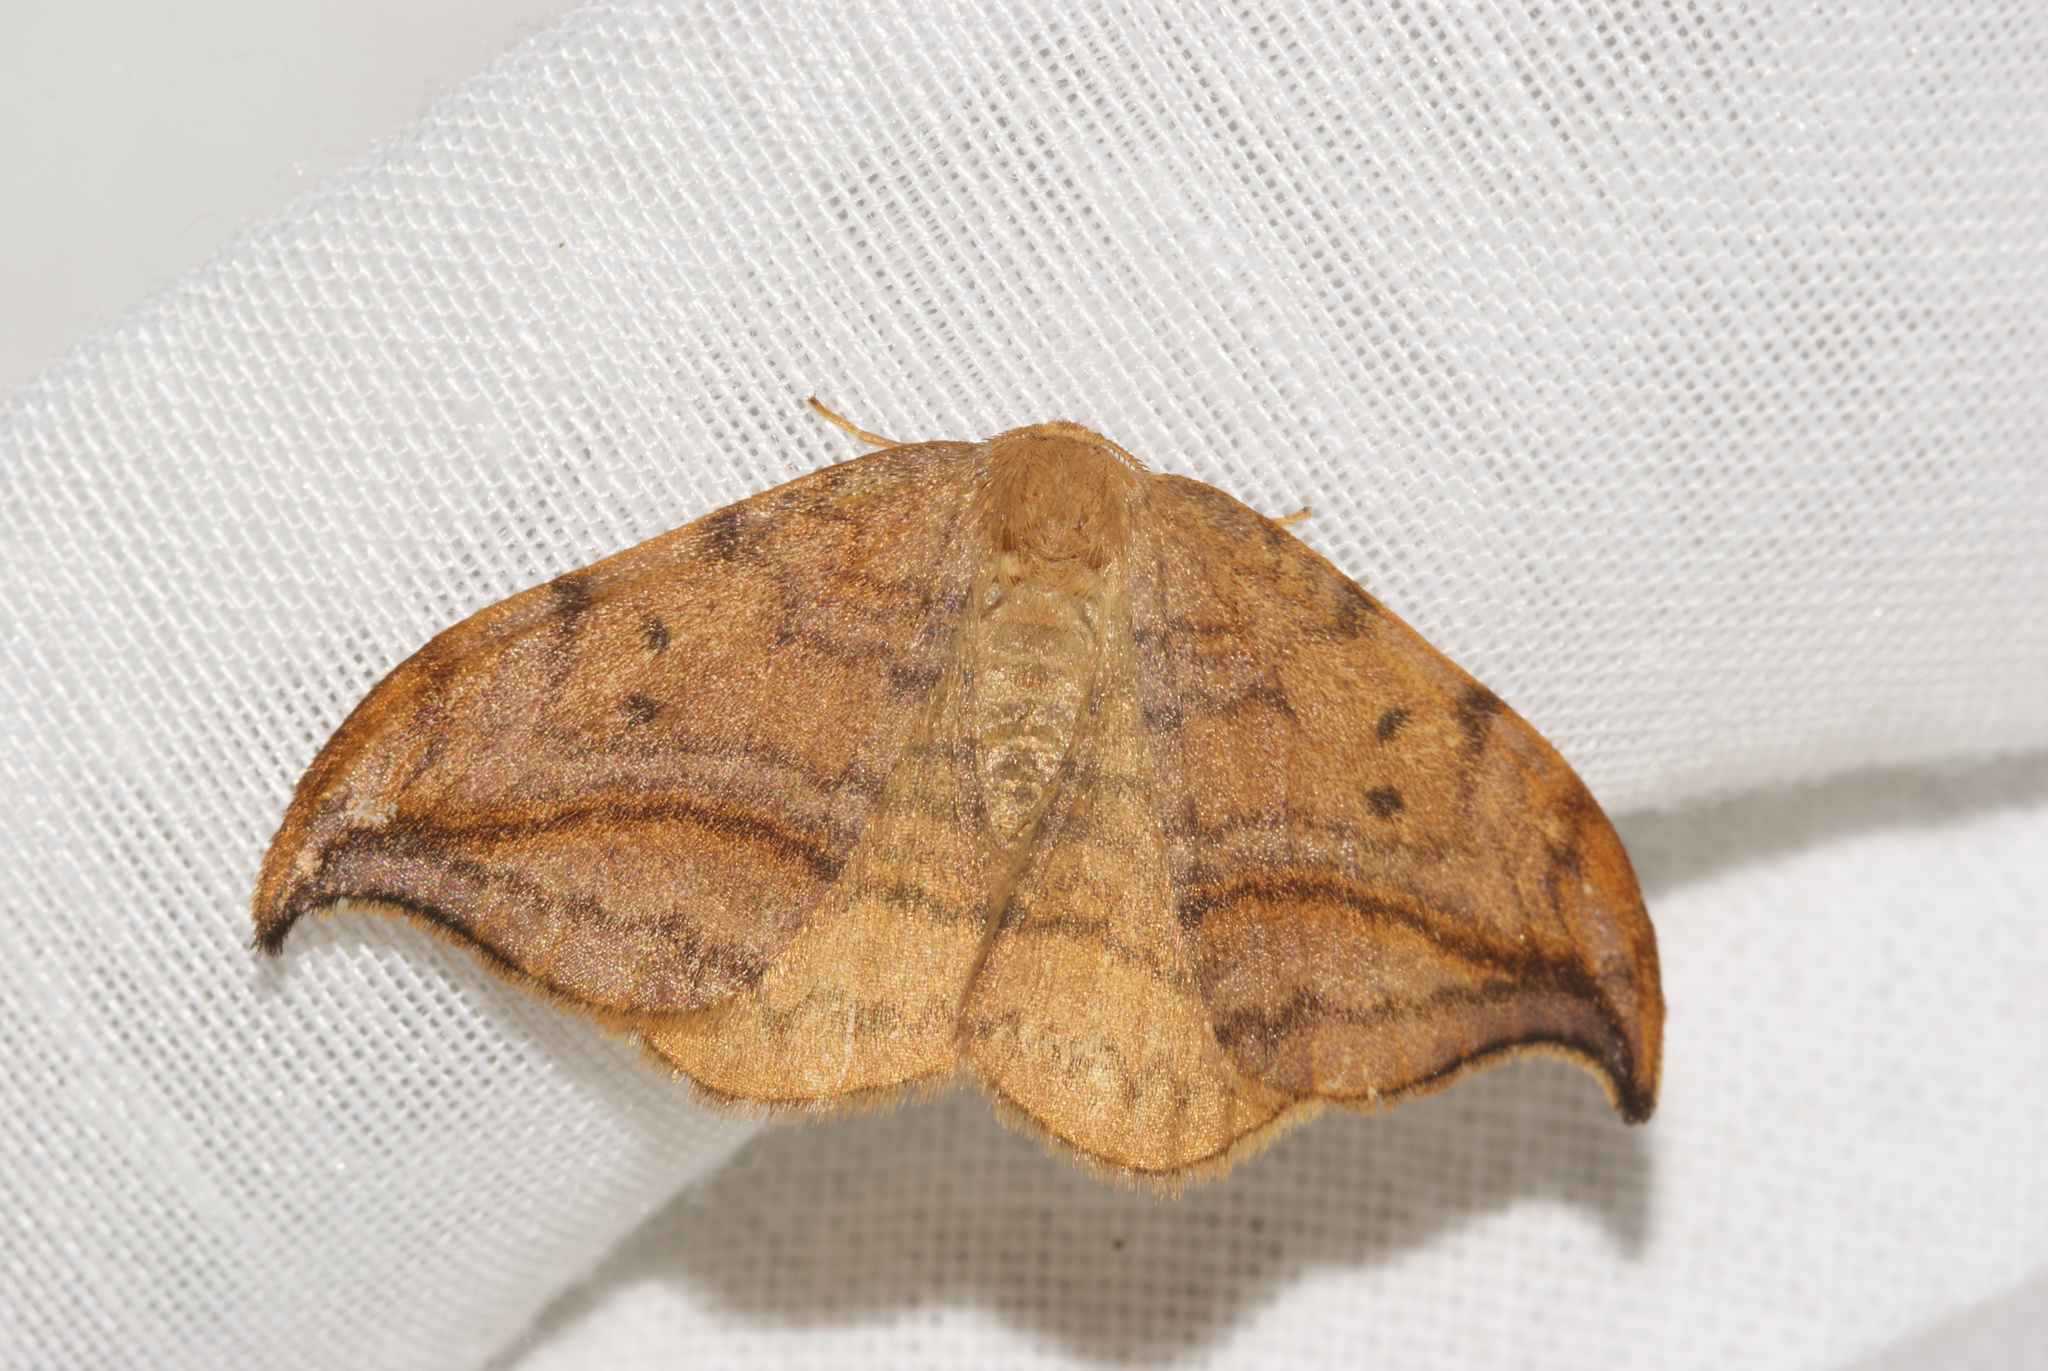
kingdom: Animalia
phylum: Arthropoda
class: Insecta
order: Lepidoptera
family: Drepanidae
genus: Drepana
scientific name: Drepana curvatula
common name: Dusky hook-tip
